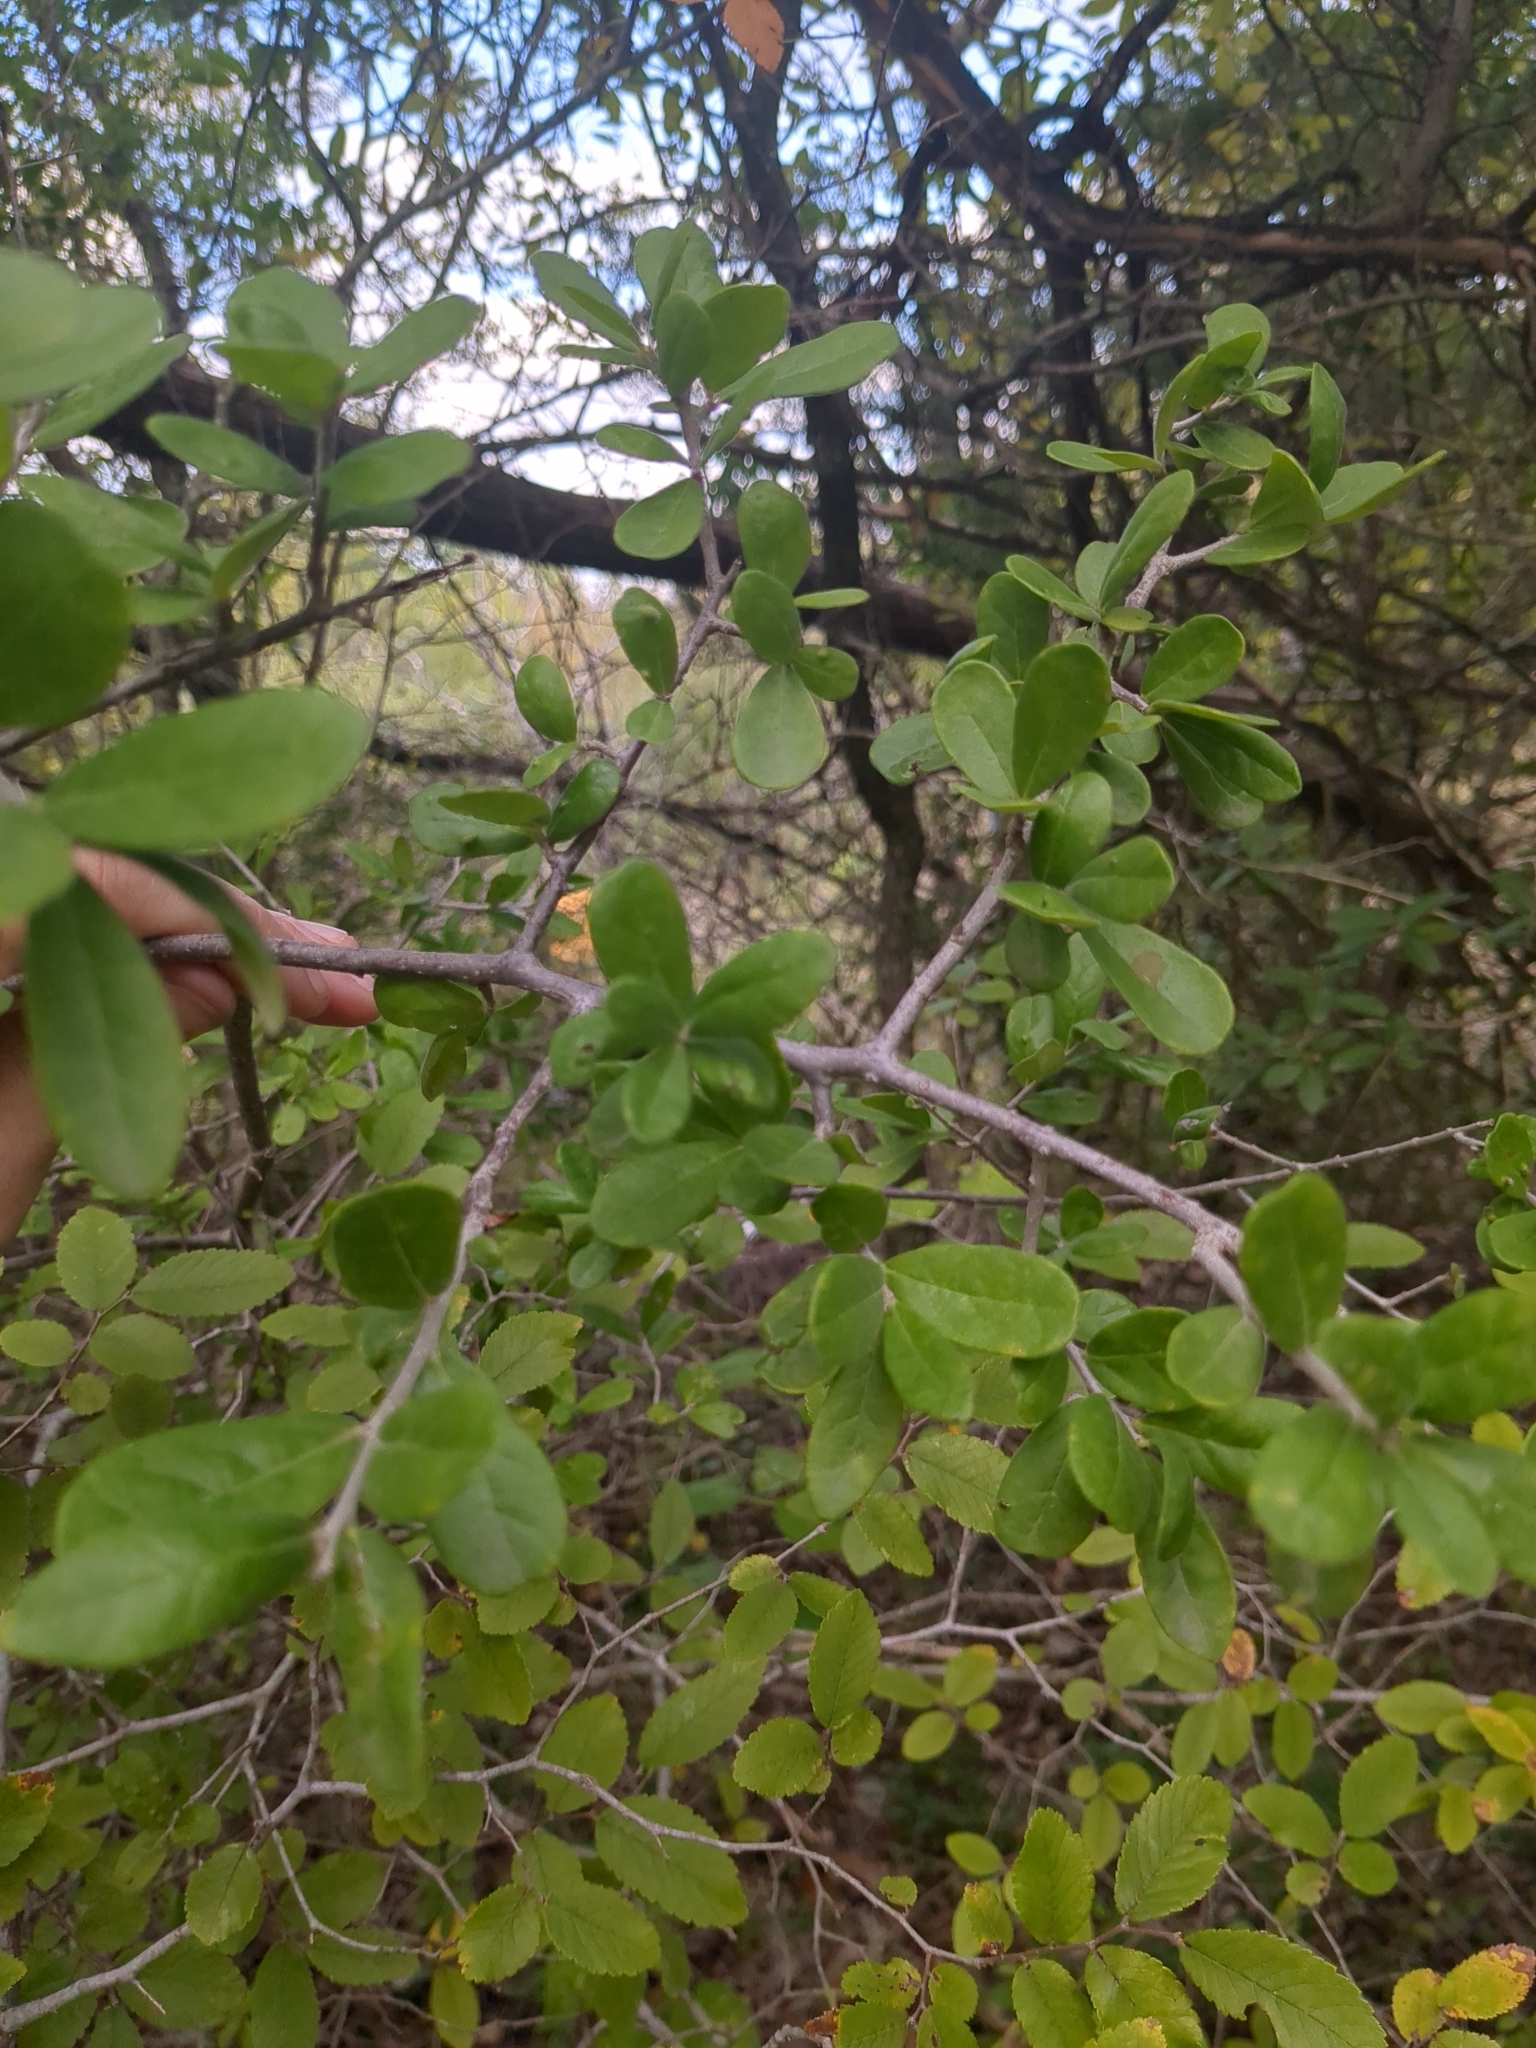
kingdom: Plantae
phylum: Tracheophyta
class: Magnoliopsida
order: Ericales
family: Ebenaceae
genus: Diospyros
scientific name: Diospyros texana
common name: Texas persimmon
